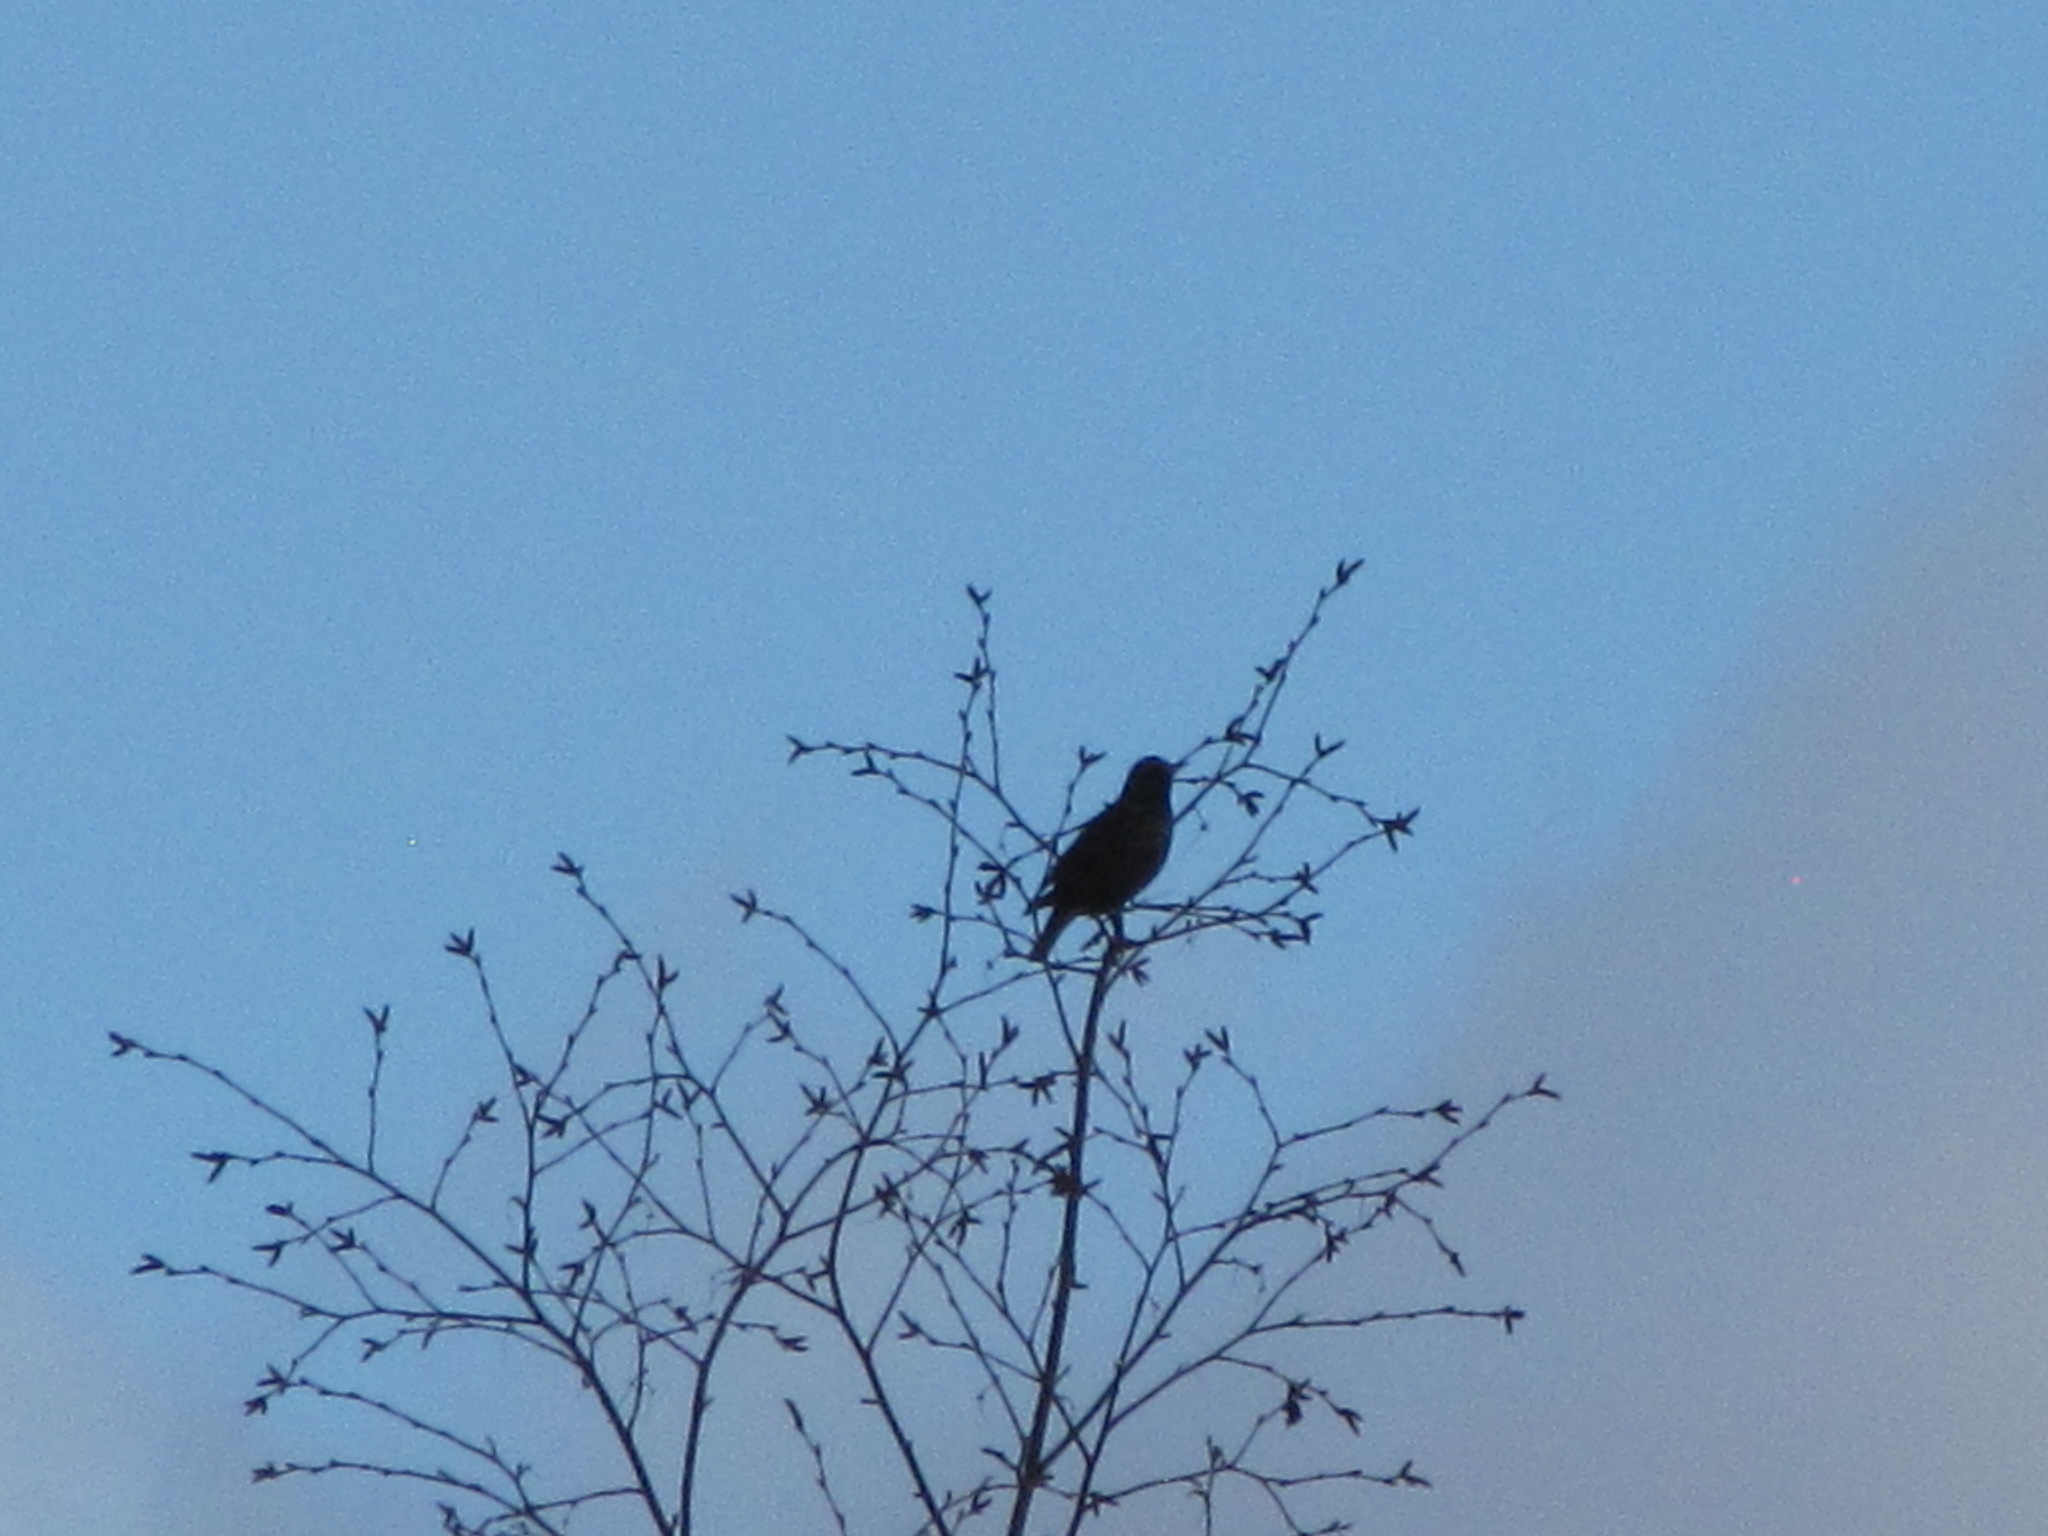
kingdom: Animalia
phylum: Chordata
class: Aves
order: Passeriformes
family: Sturnidae
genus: Sturnus
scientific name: Sturnus vulgaris
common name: Common starling
